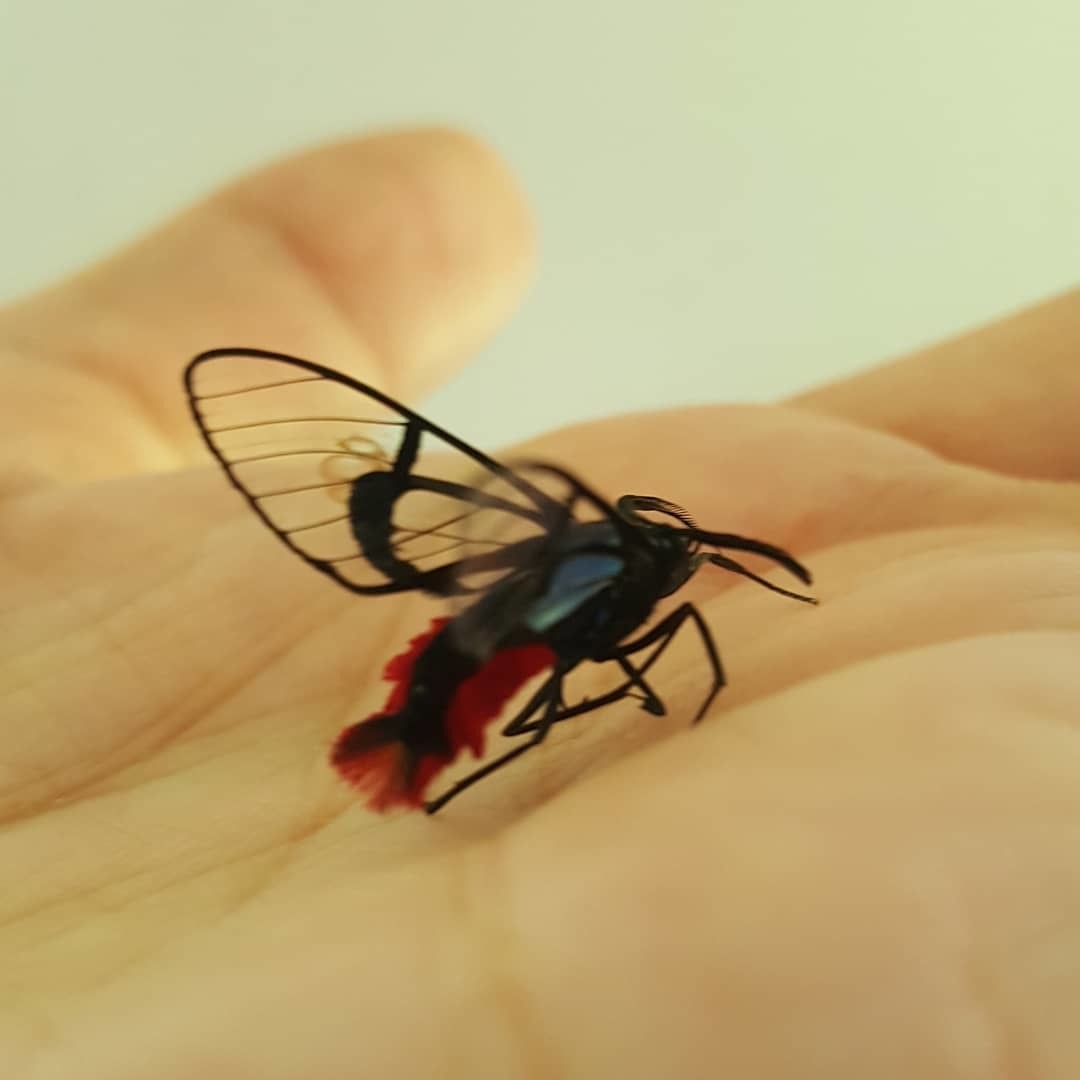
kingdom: Animalia
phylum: Arthropoda
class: Insecta
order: Lepidoptera
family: Erebidae
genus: Dinia
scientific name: Dinia eagrus
